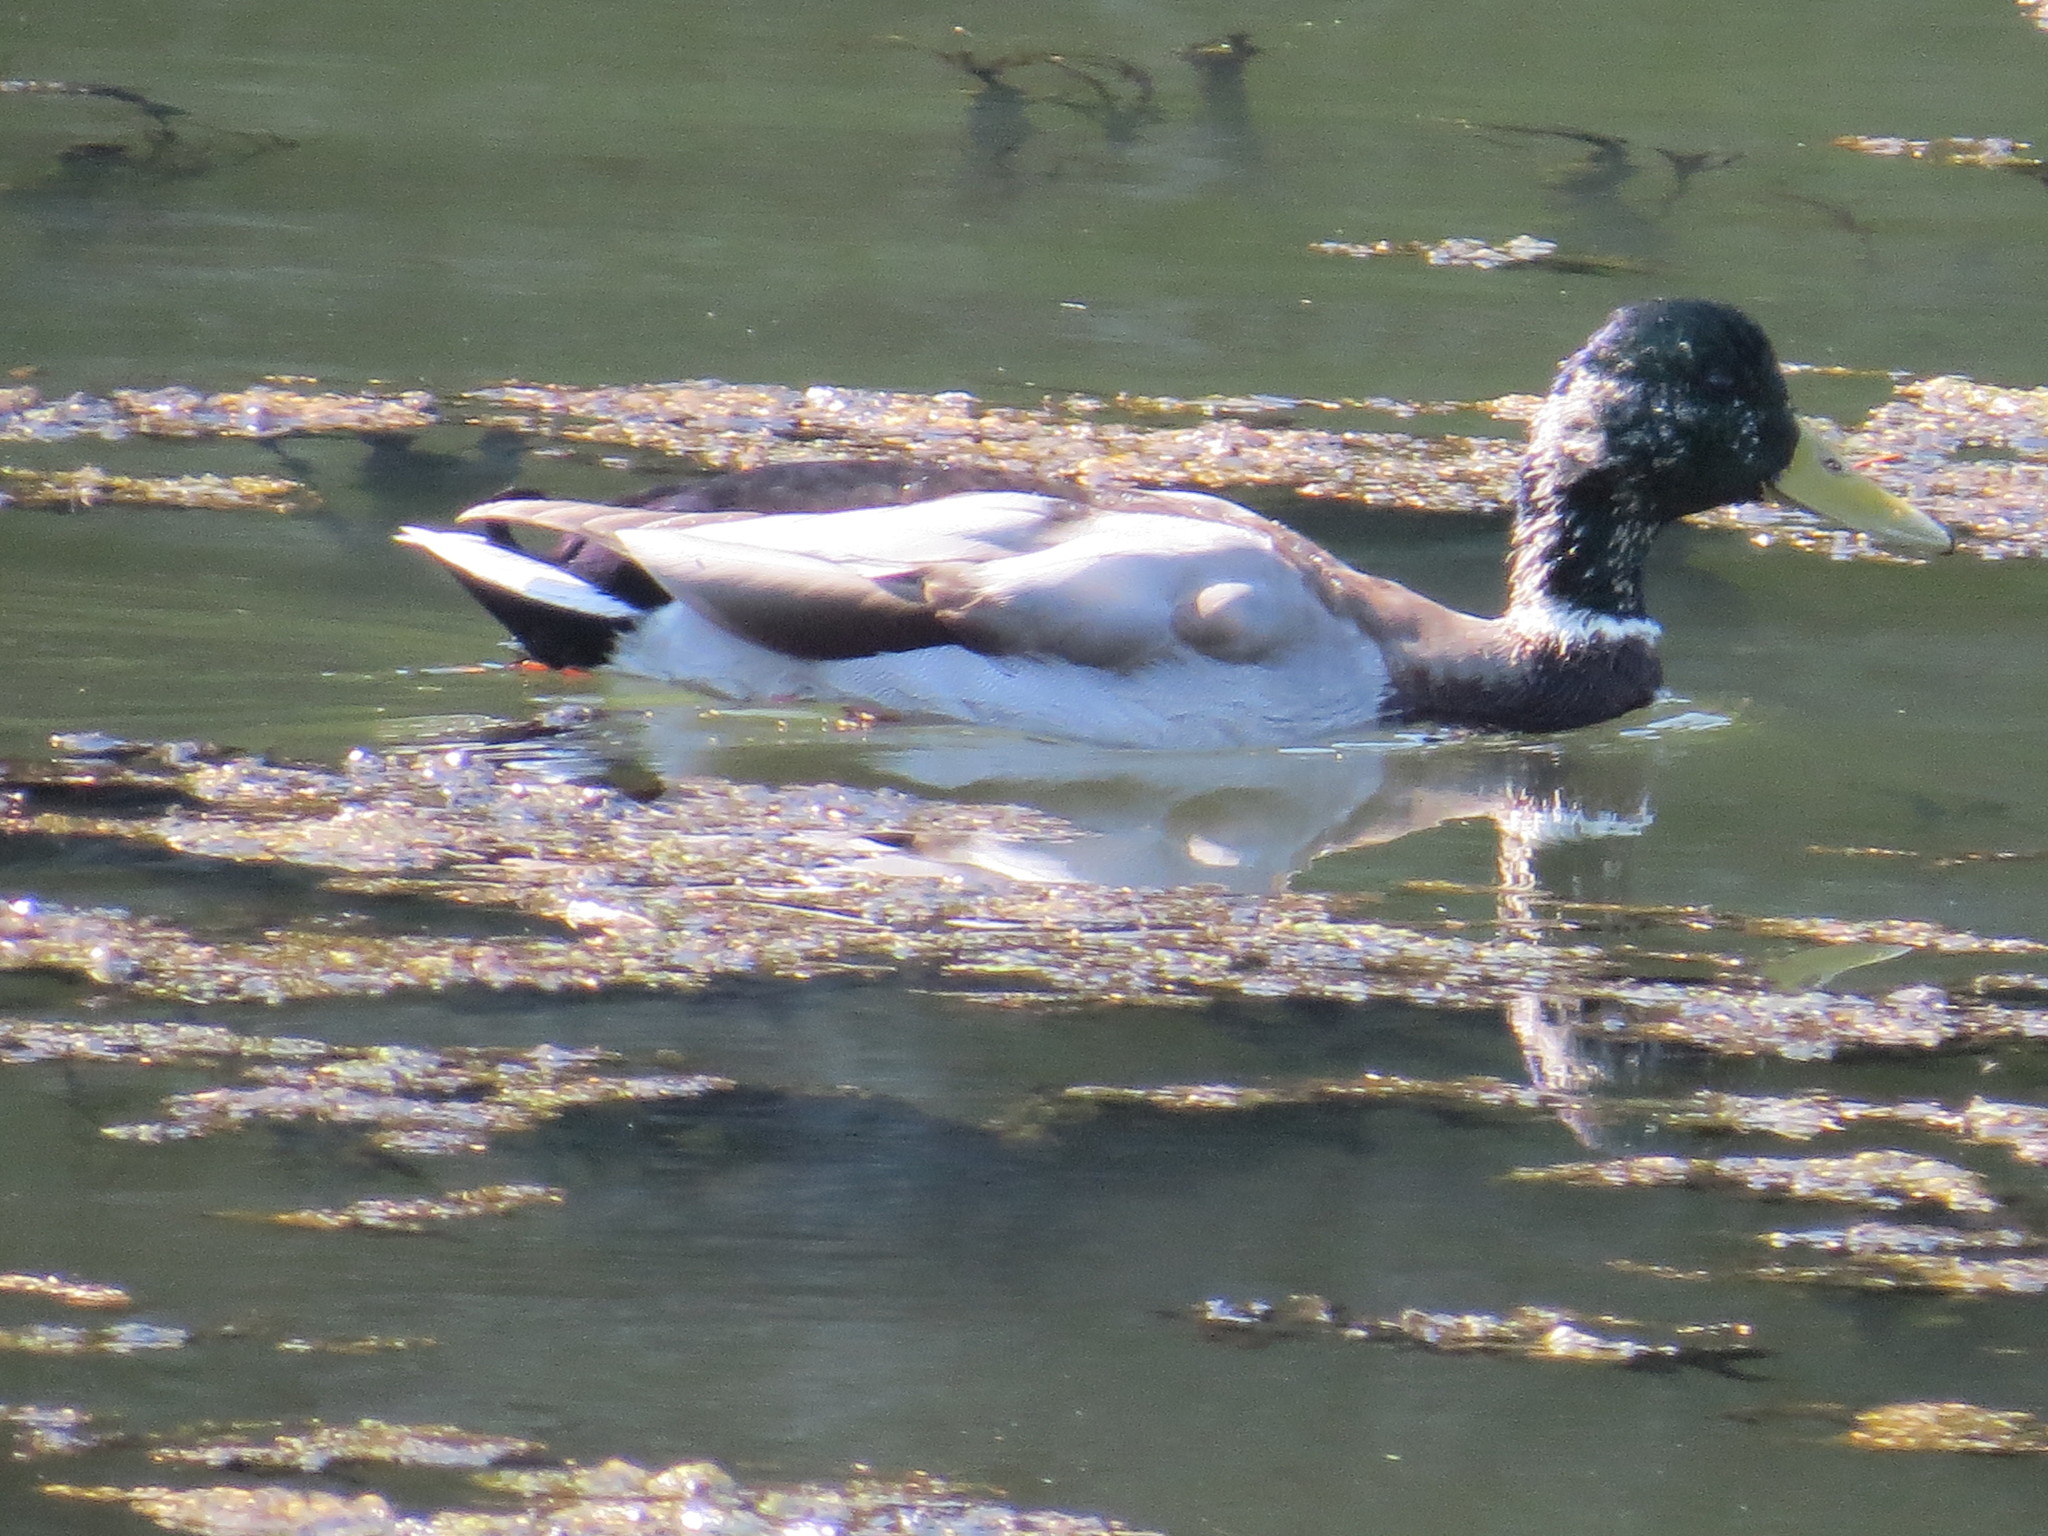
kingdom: Animalia
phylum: Chordata
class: Aves
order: Anseriformes
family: Anatidae
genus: Anas
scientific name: Anas platyrhynchos
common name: Mallard
